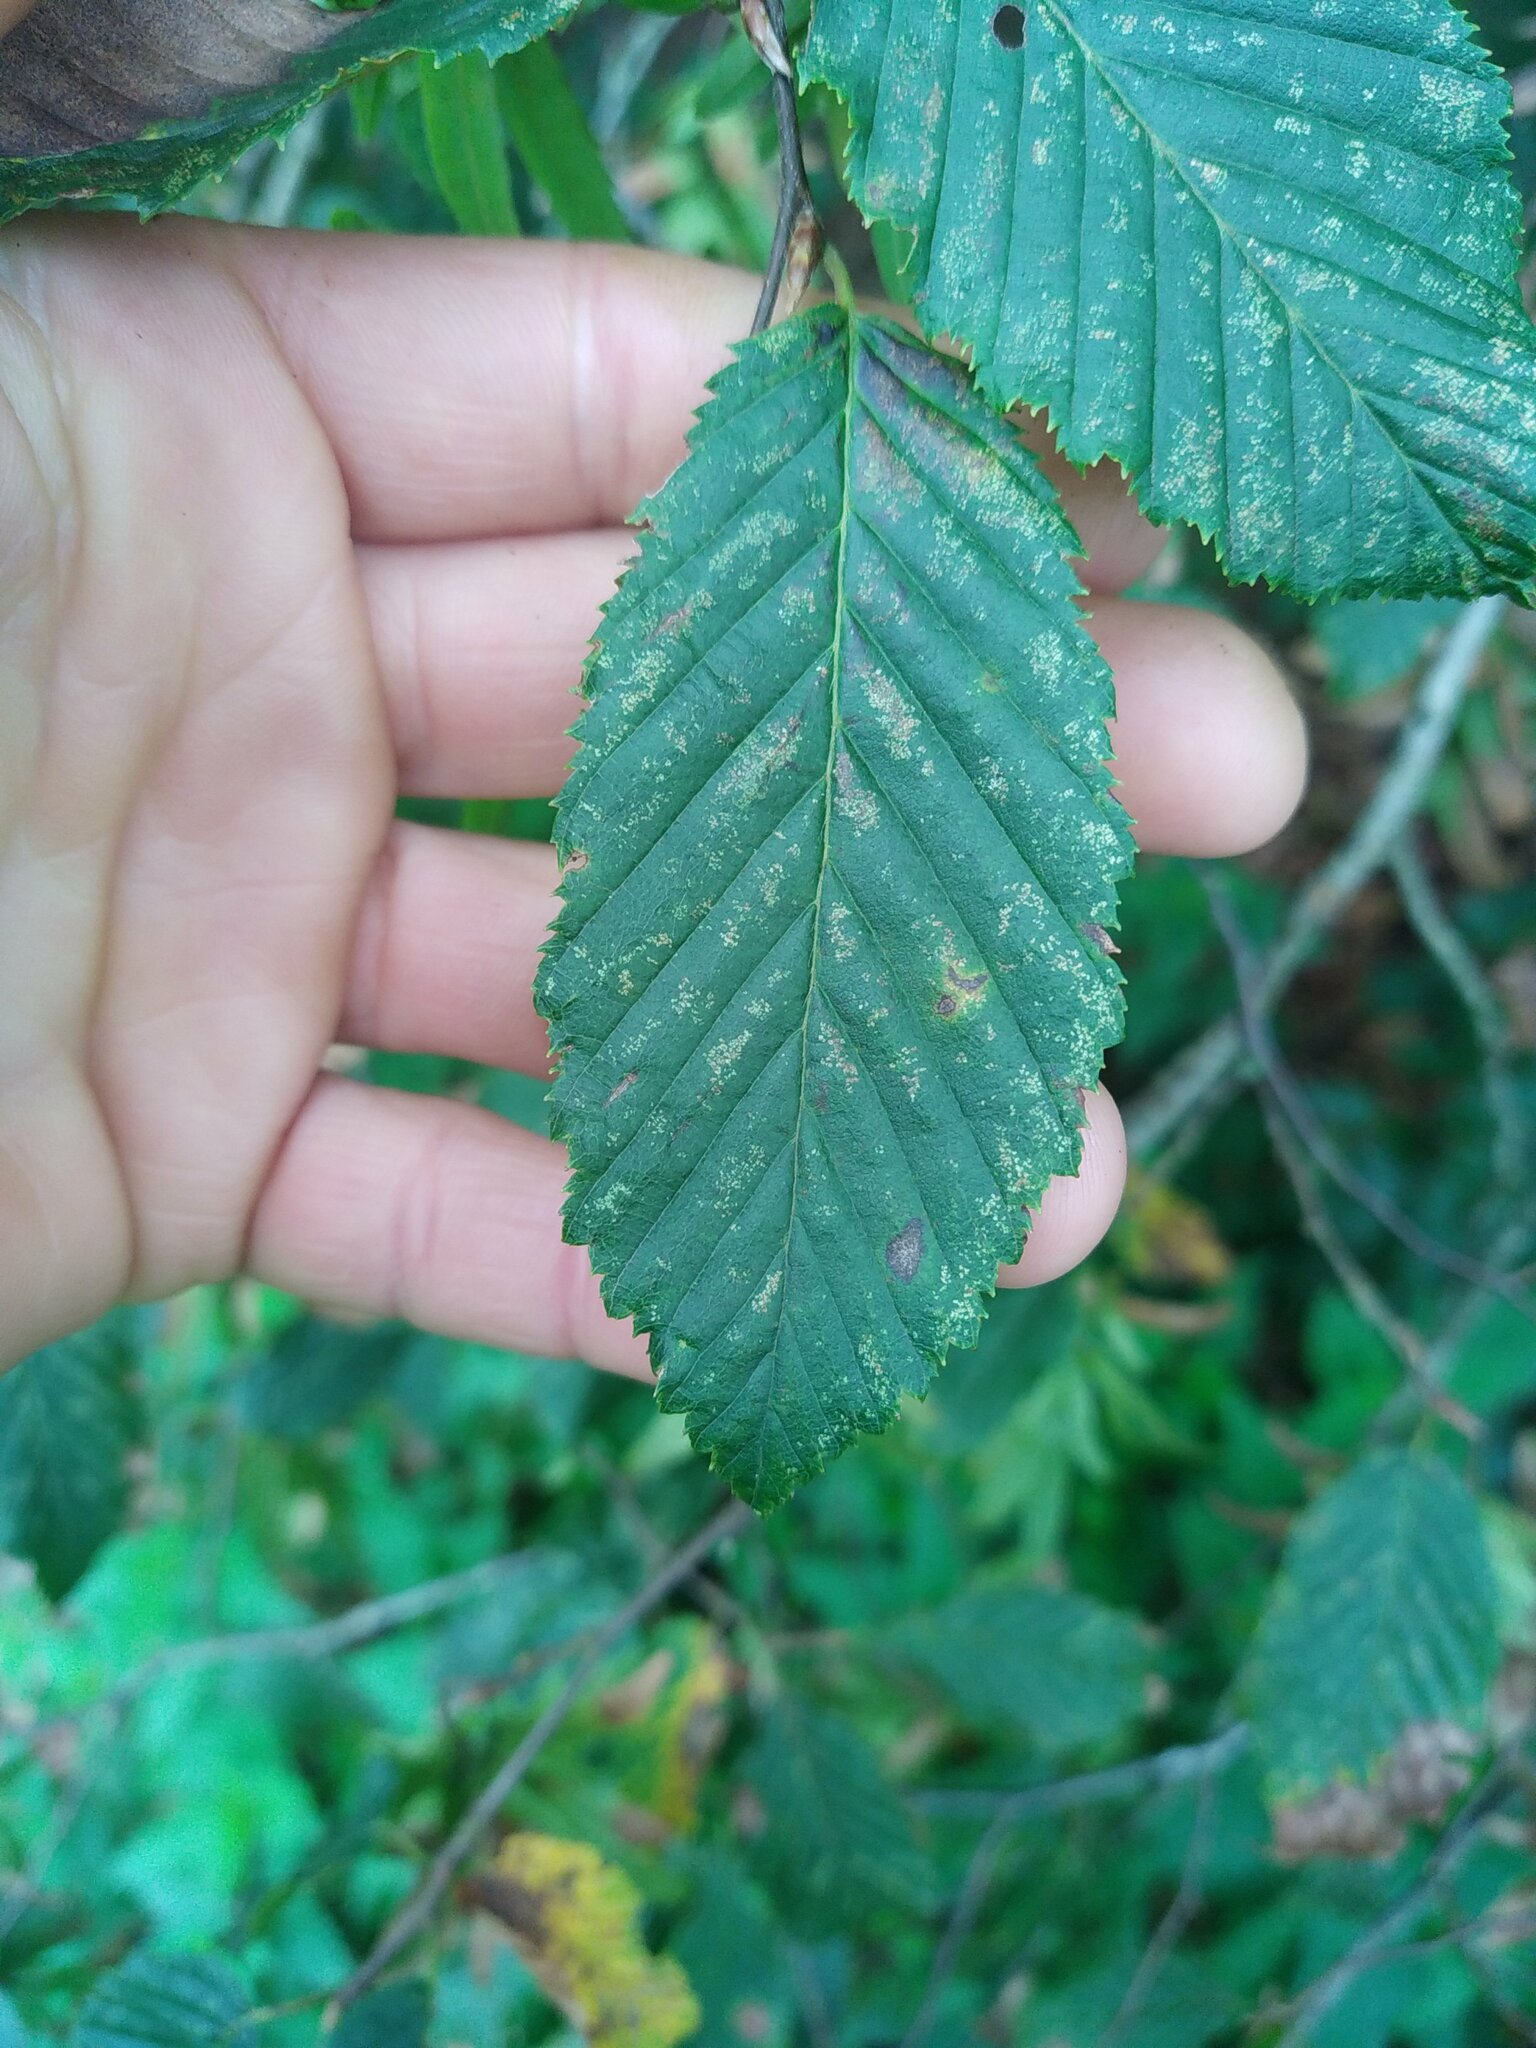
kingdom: Plantae
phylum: Tracheophyta
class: Magnoliopsida
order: Fagales
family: Betulaceae
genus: Carpinus
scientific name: Carpinus betulus
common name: Hornbeam
